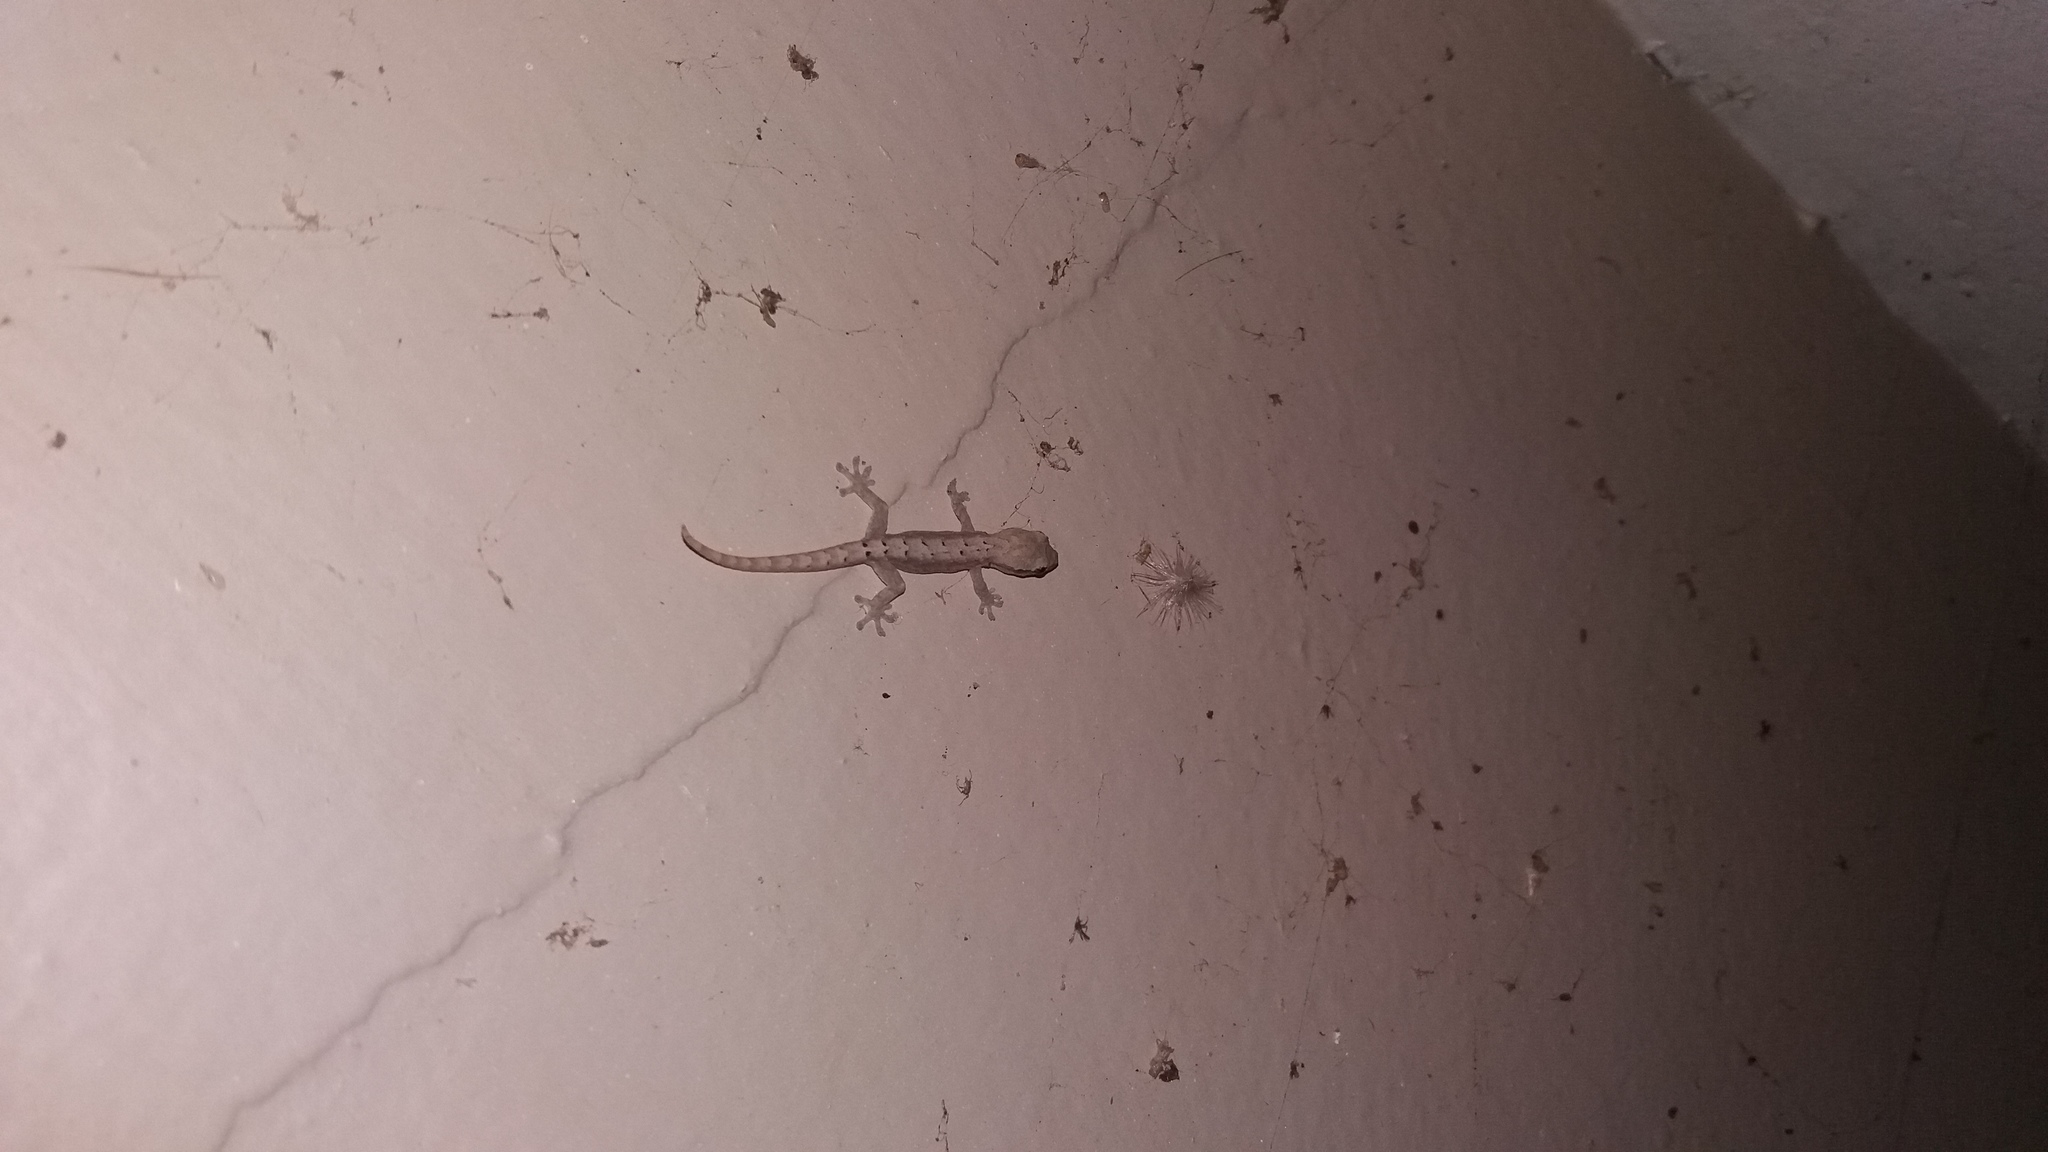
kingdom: Animalia
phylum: Chordata
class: Squamata
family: Gekkonidae
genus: Lepidodactylus
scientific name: Lepidodactylus lugubris
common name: Mourning gecko
